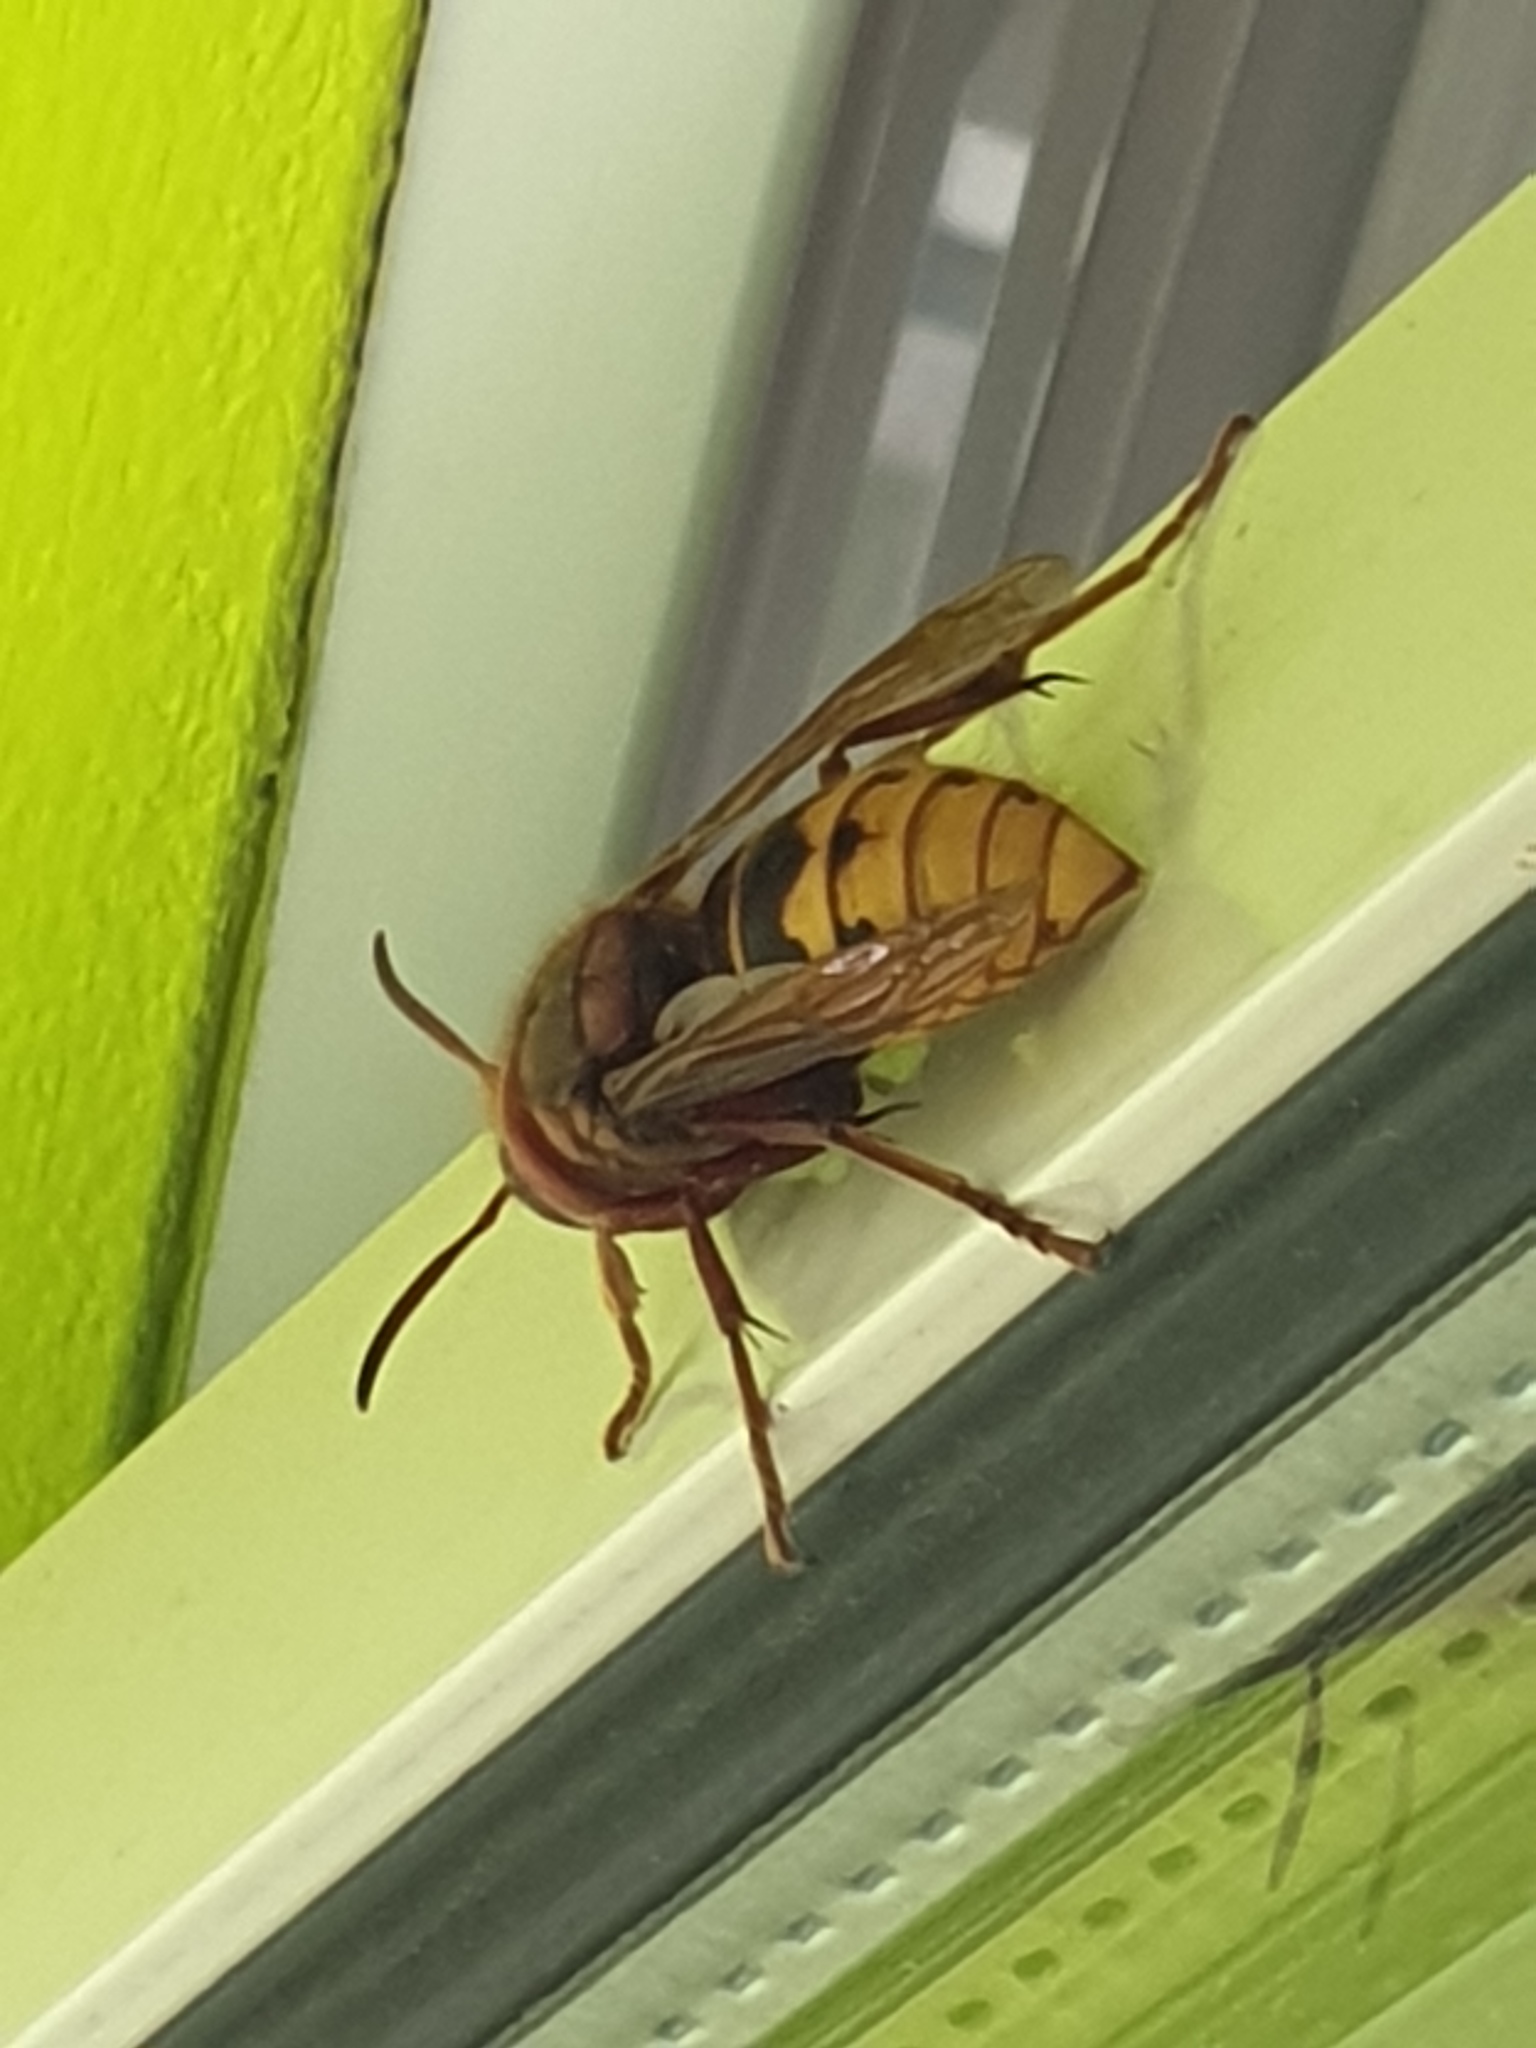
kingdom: Animalia
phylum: Arthropoda
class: Insecta
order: Hymenoptera
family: Vespidae
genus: Vespa
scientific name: Vespa crabro
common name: Hornet
